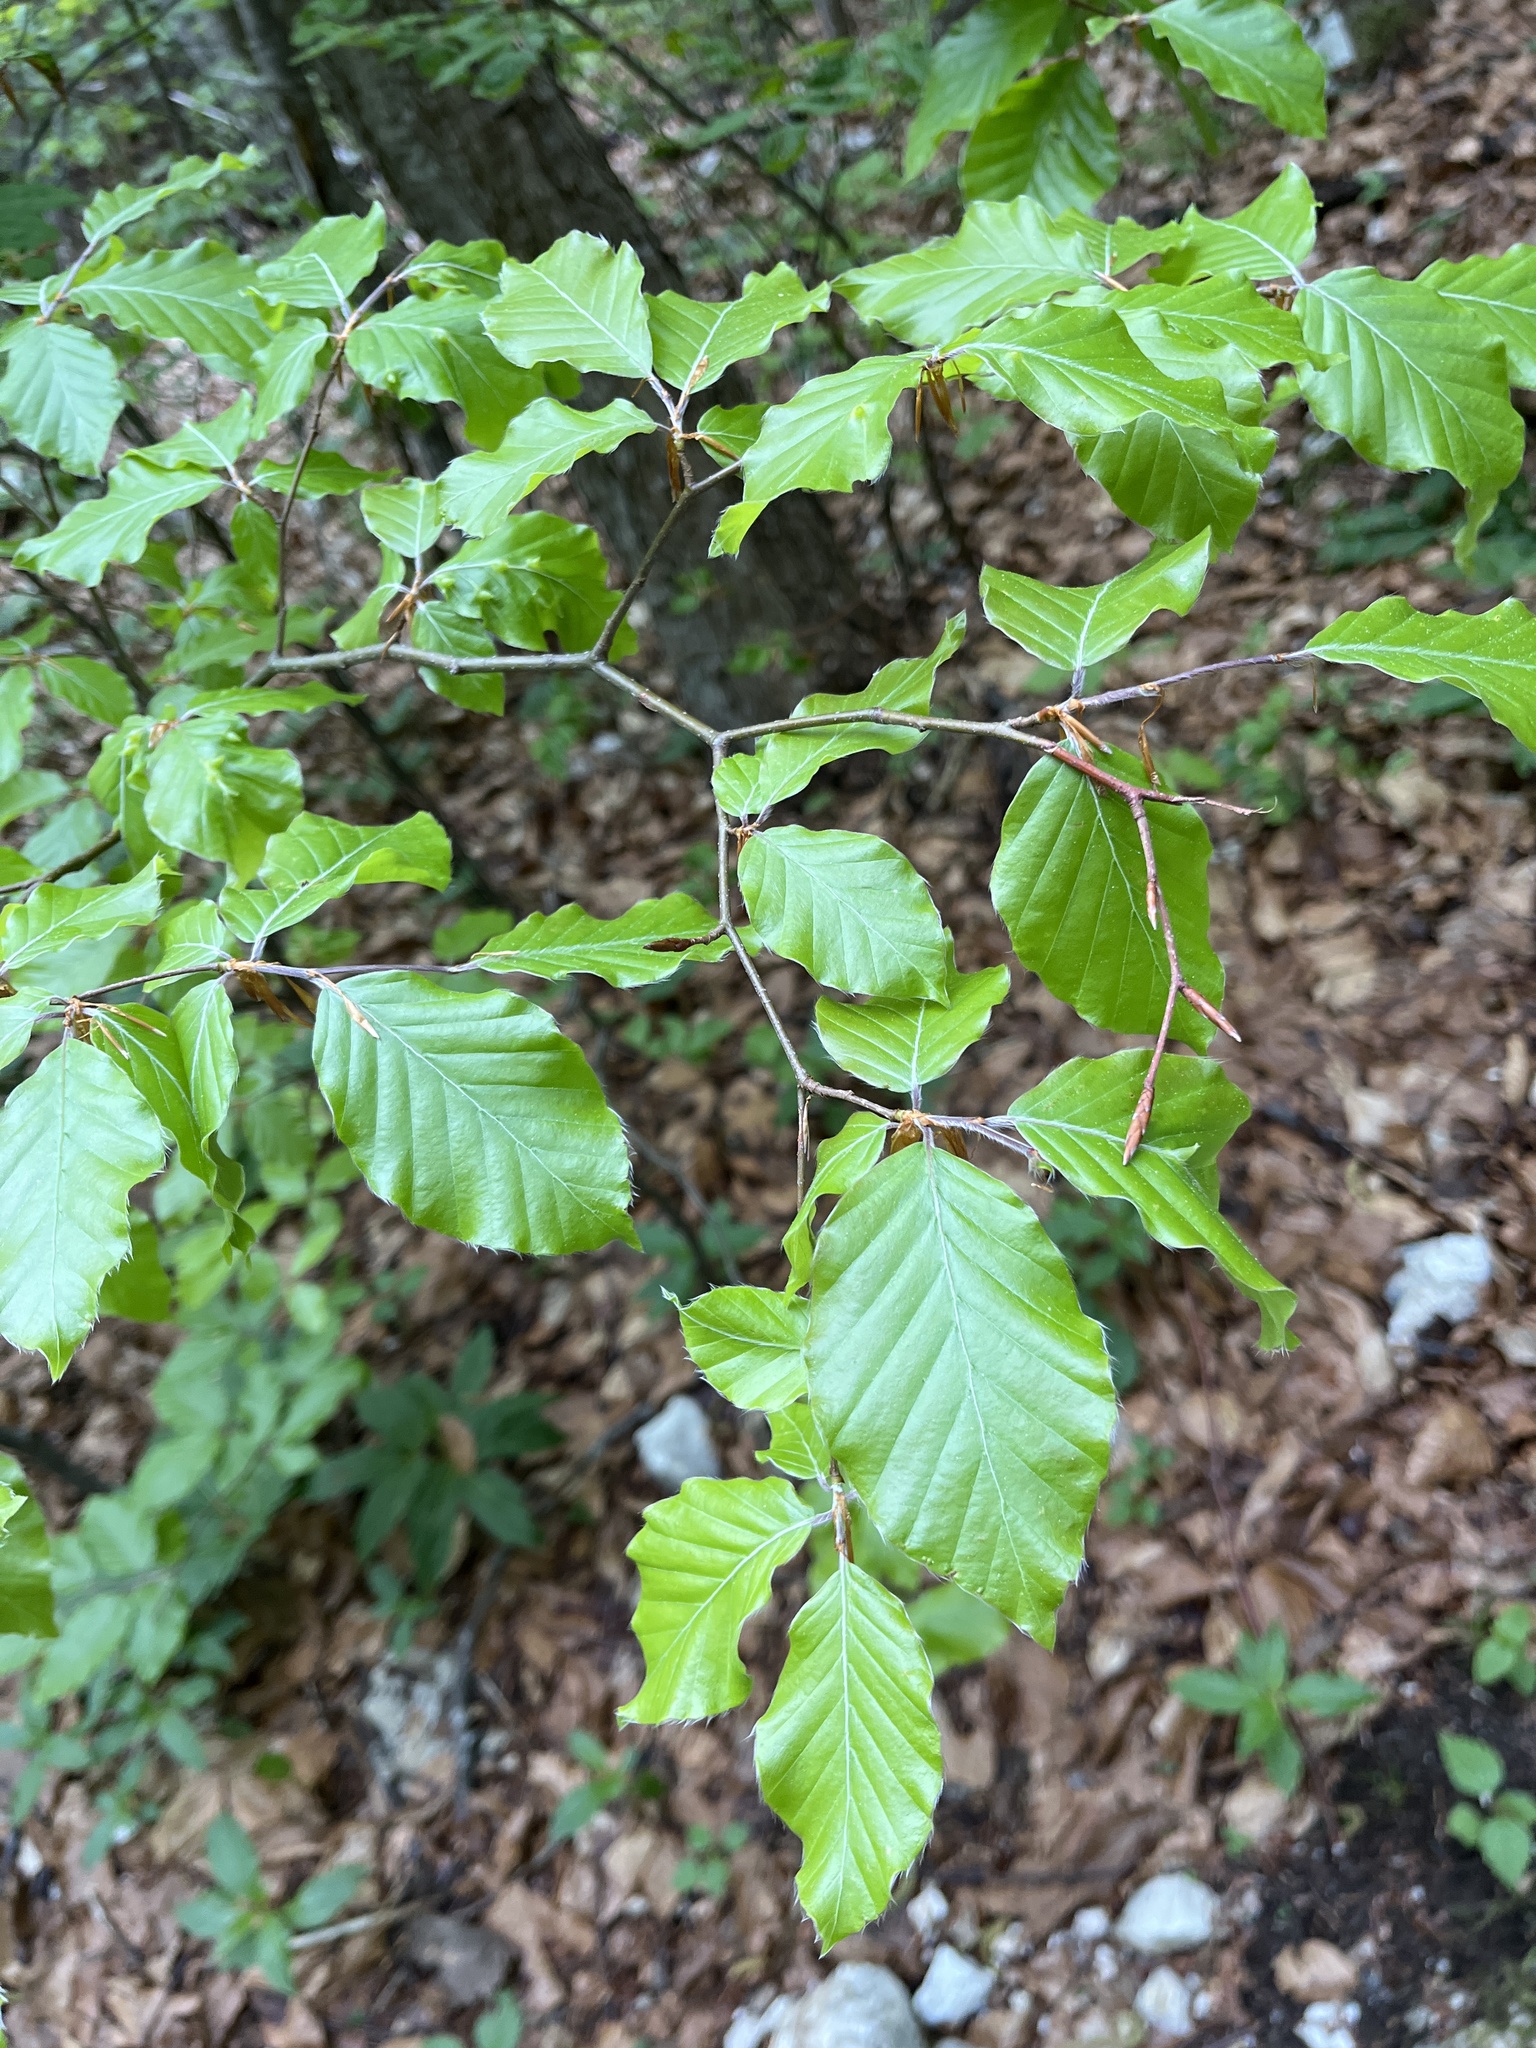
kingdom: Plantae
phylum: Tracheophyta
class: Magnoliopsida
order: Fagales
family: Fagaceae
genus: Fagus
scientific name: Fagus sylvatica
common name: Beech
